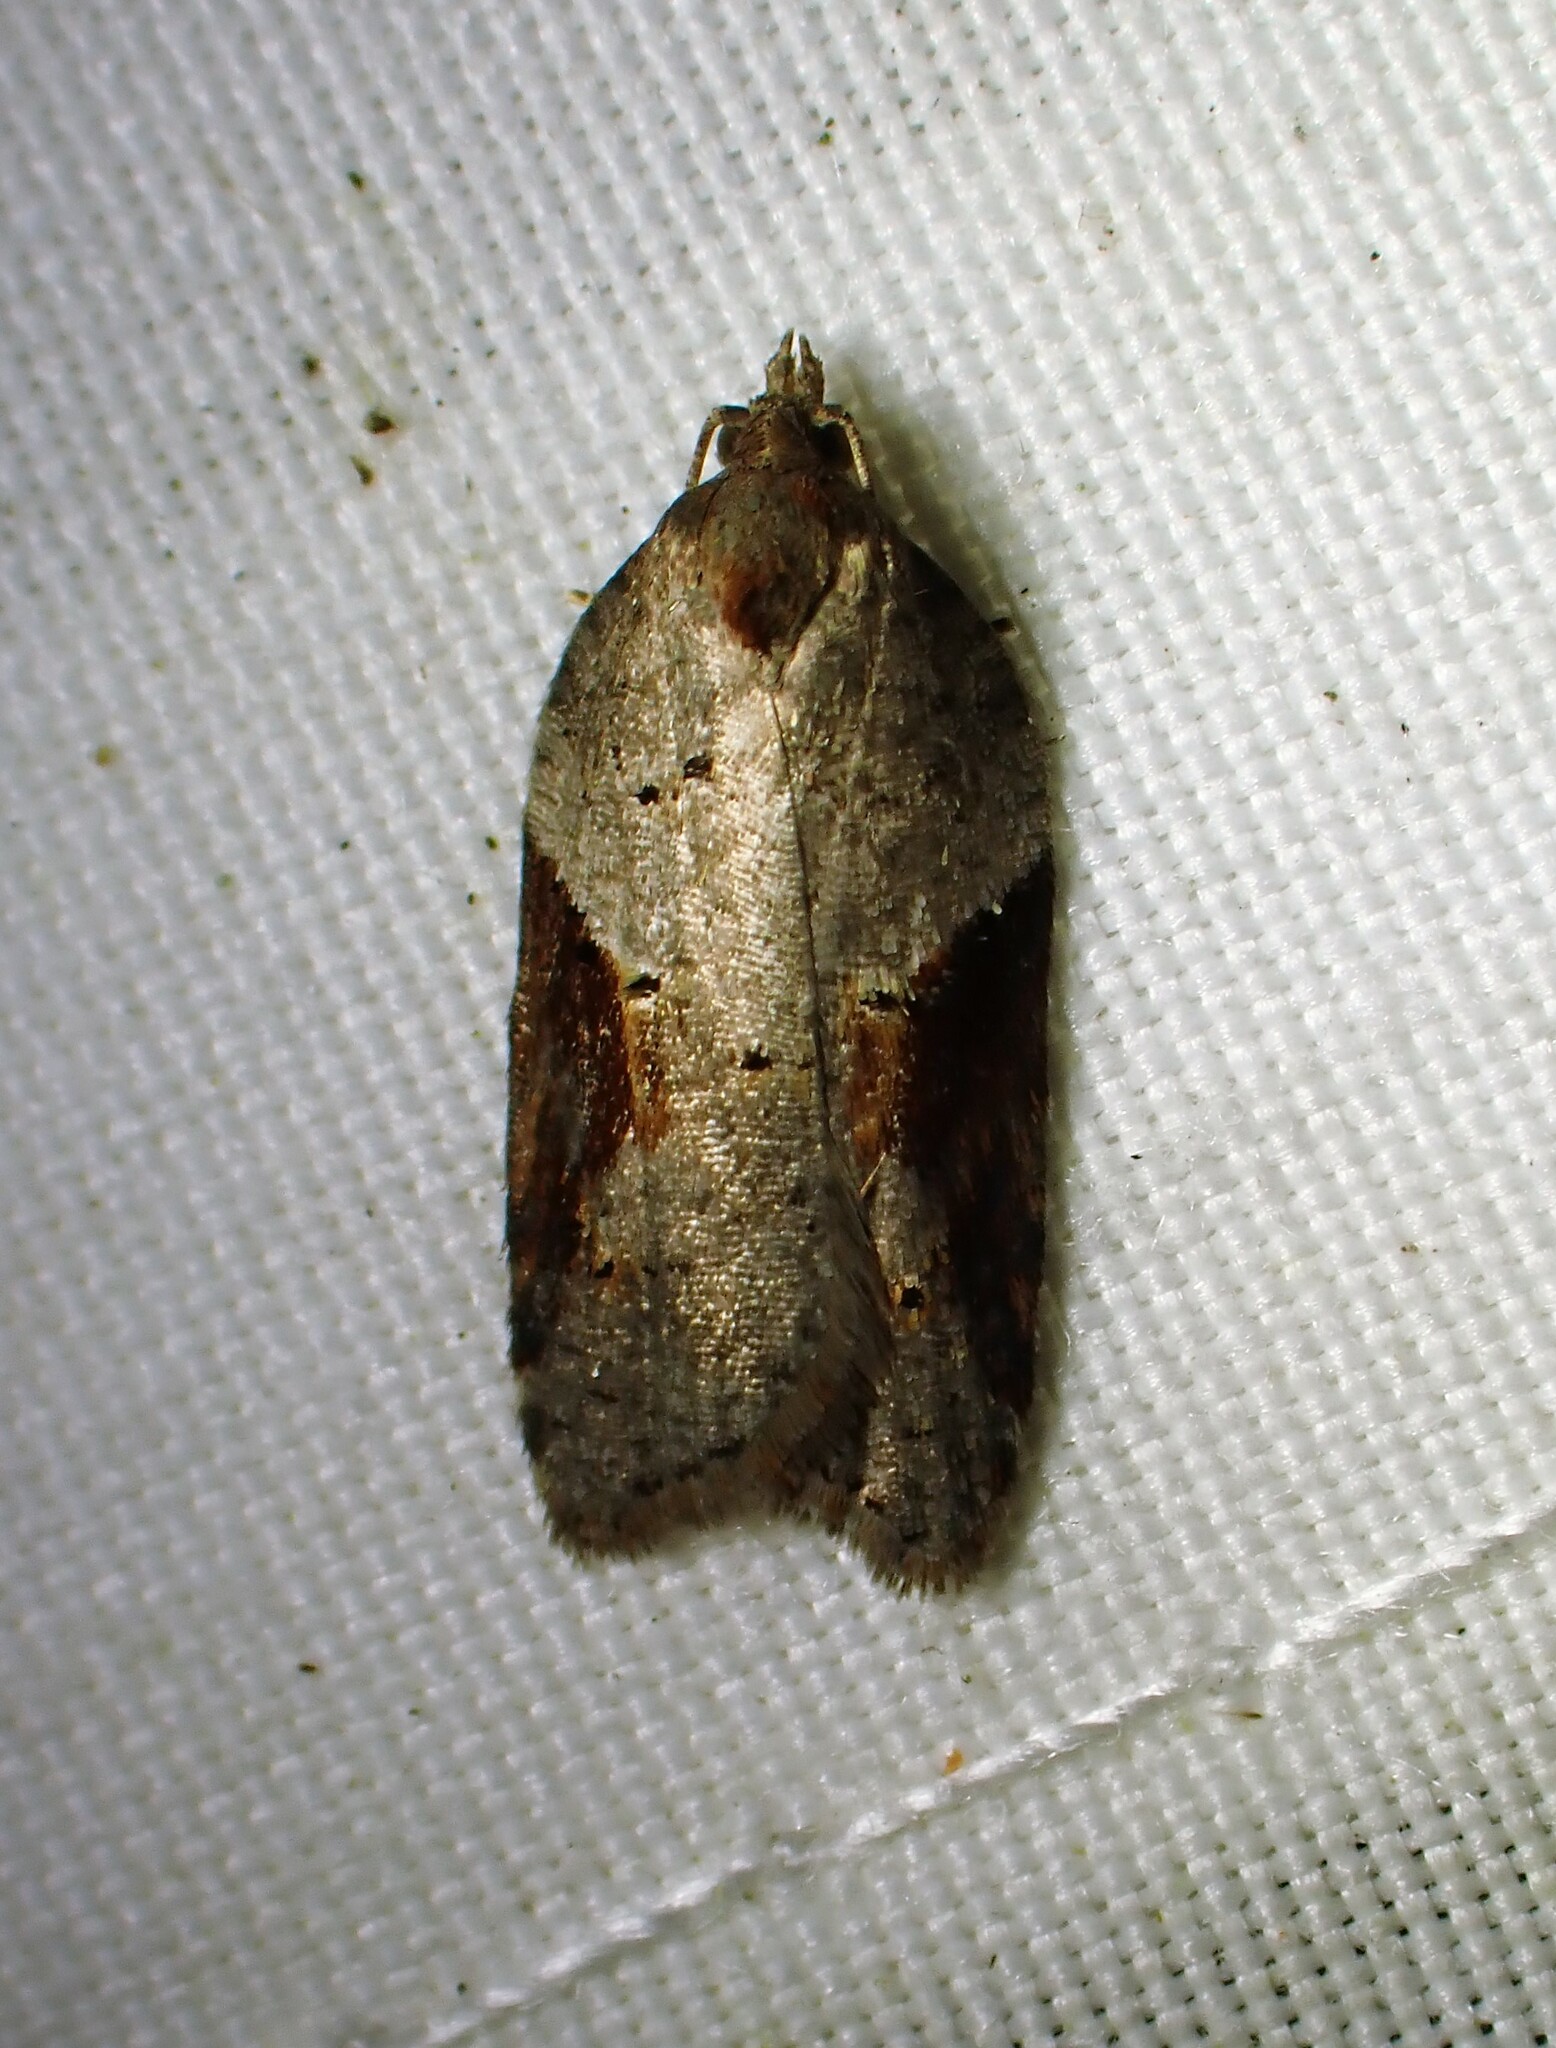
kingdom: Animalia
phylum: Arthropoda
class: Insecta
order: Lepidoptera
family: Tortricidae
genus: Acleris
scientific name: Acleris macdunnoughi
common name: Macdunnough's acleris
